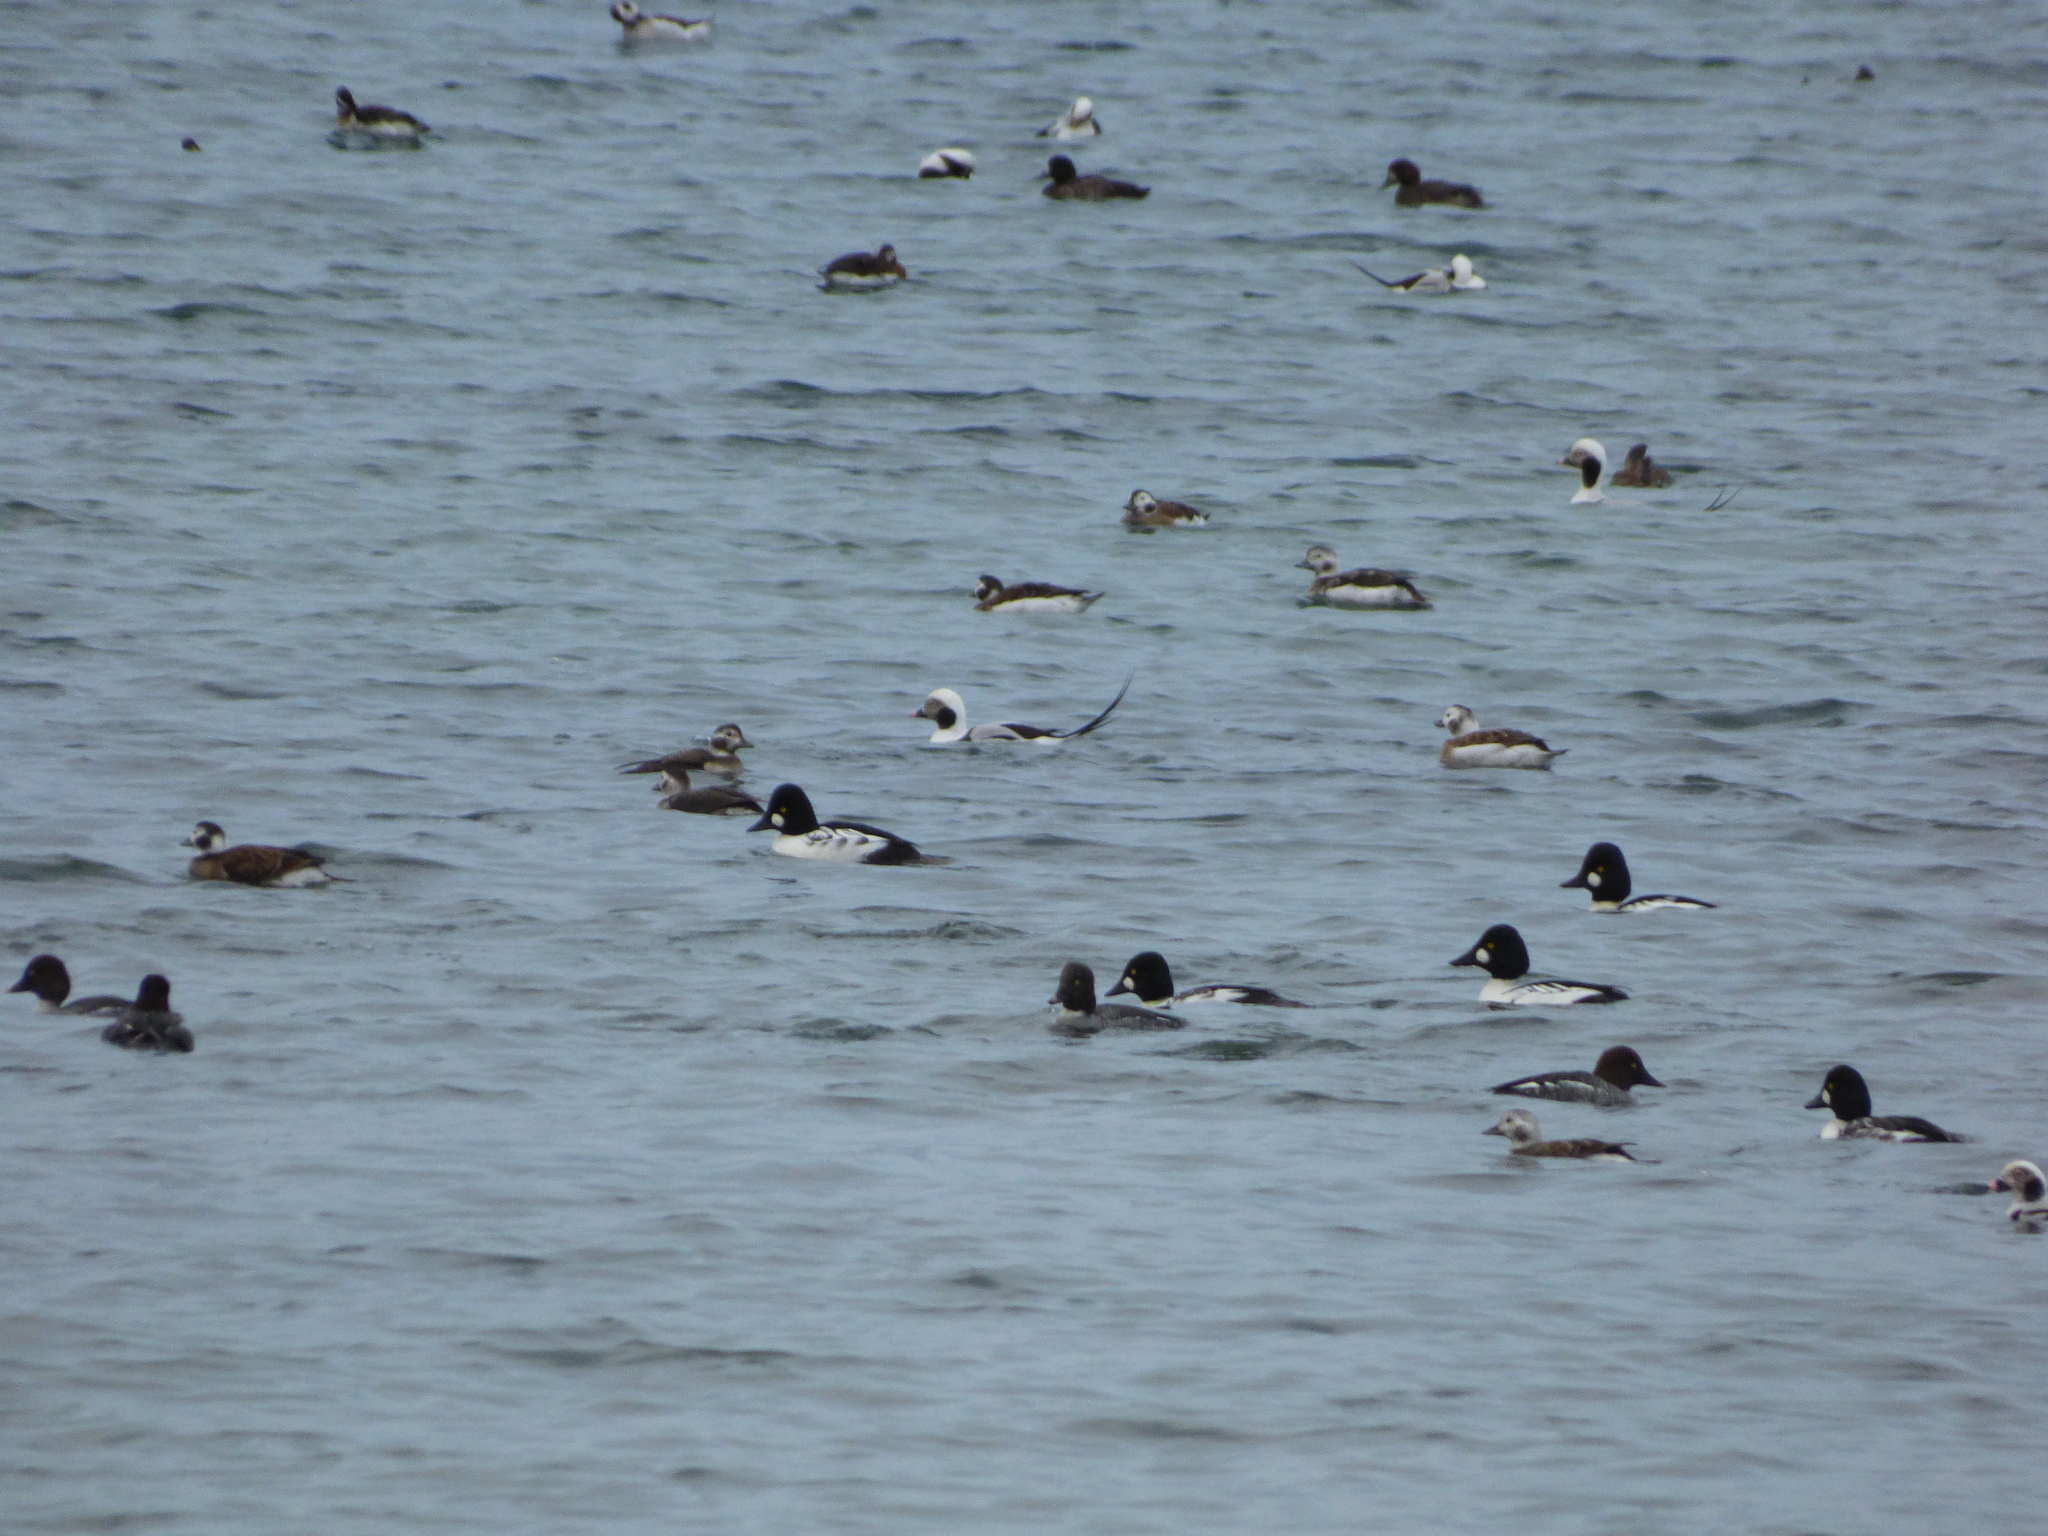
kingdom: Animalia
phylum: Chordata
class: Aves
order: Anseriformes
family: Anatidae
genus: Clangula
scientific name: Clangula hyemalis
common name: Long-tailed duck
